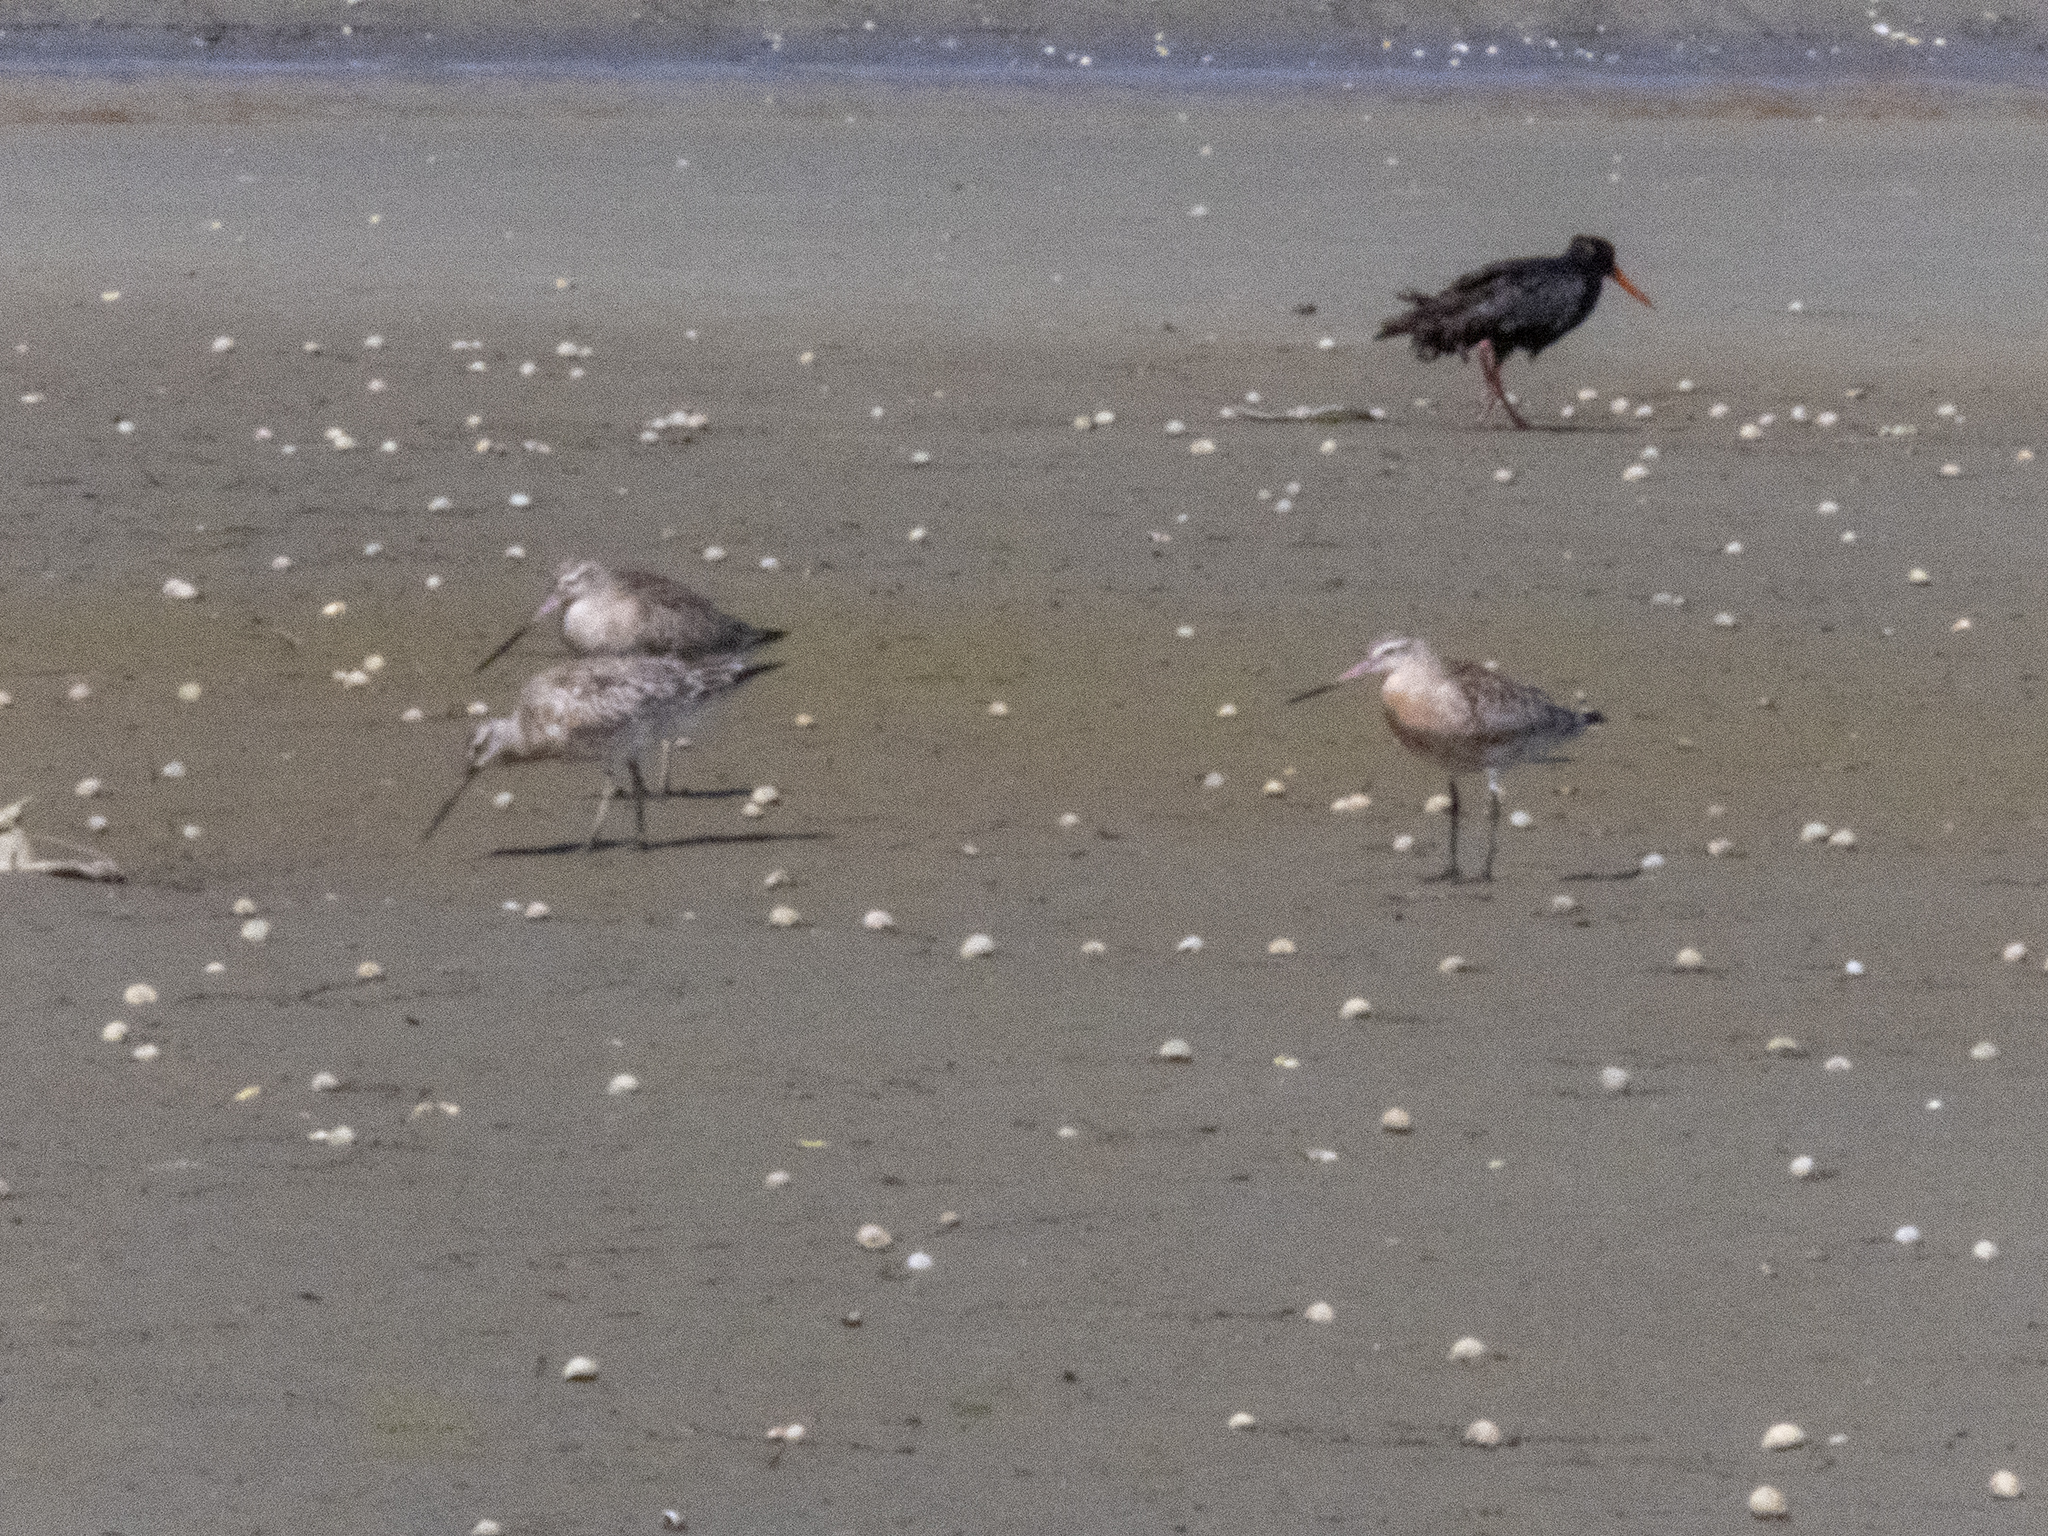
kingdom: Animalia
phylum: Chordata
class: Aves
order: Charadriiformes
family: Scolopacidae
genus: Limosa
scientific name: Limosa lapponica
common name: Bar-tailed godwit
